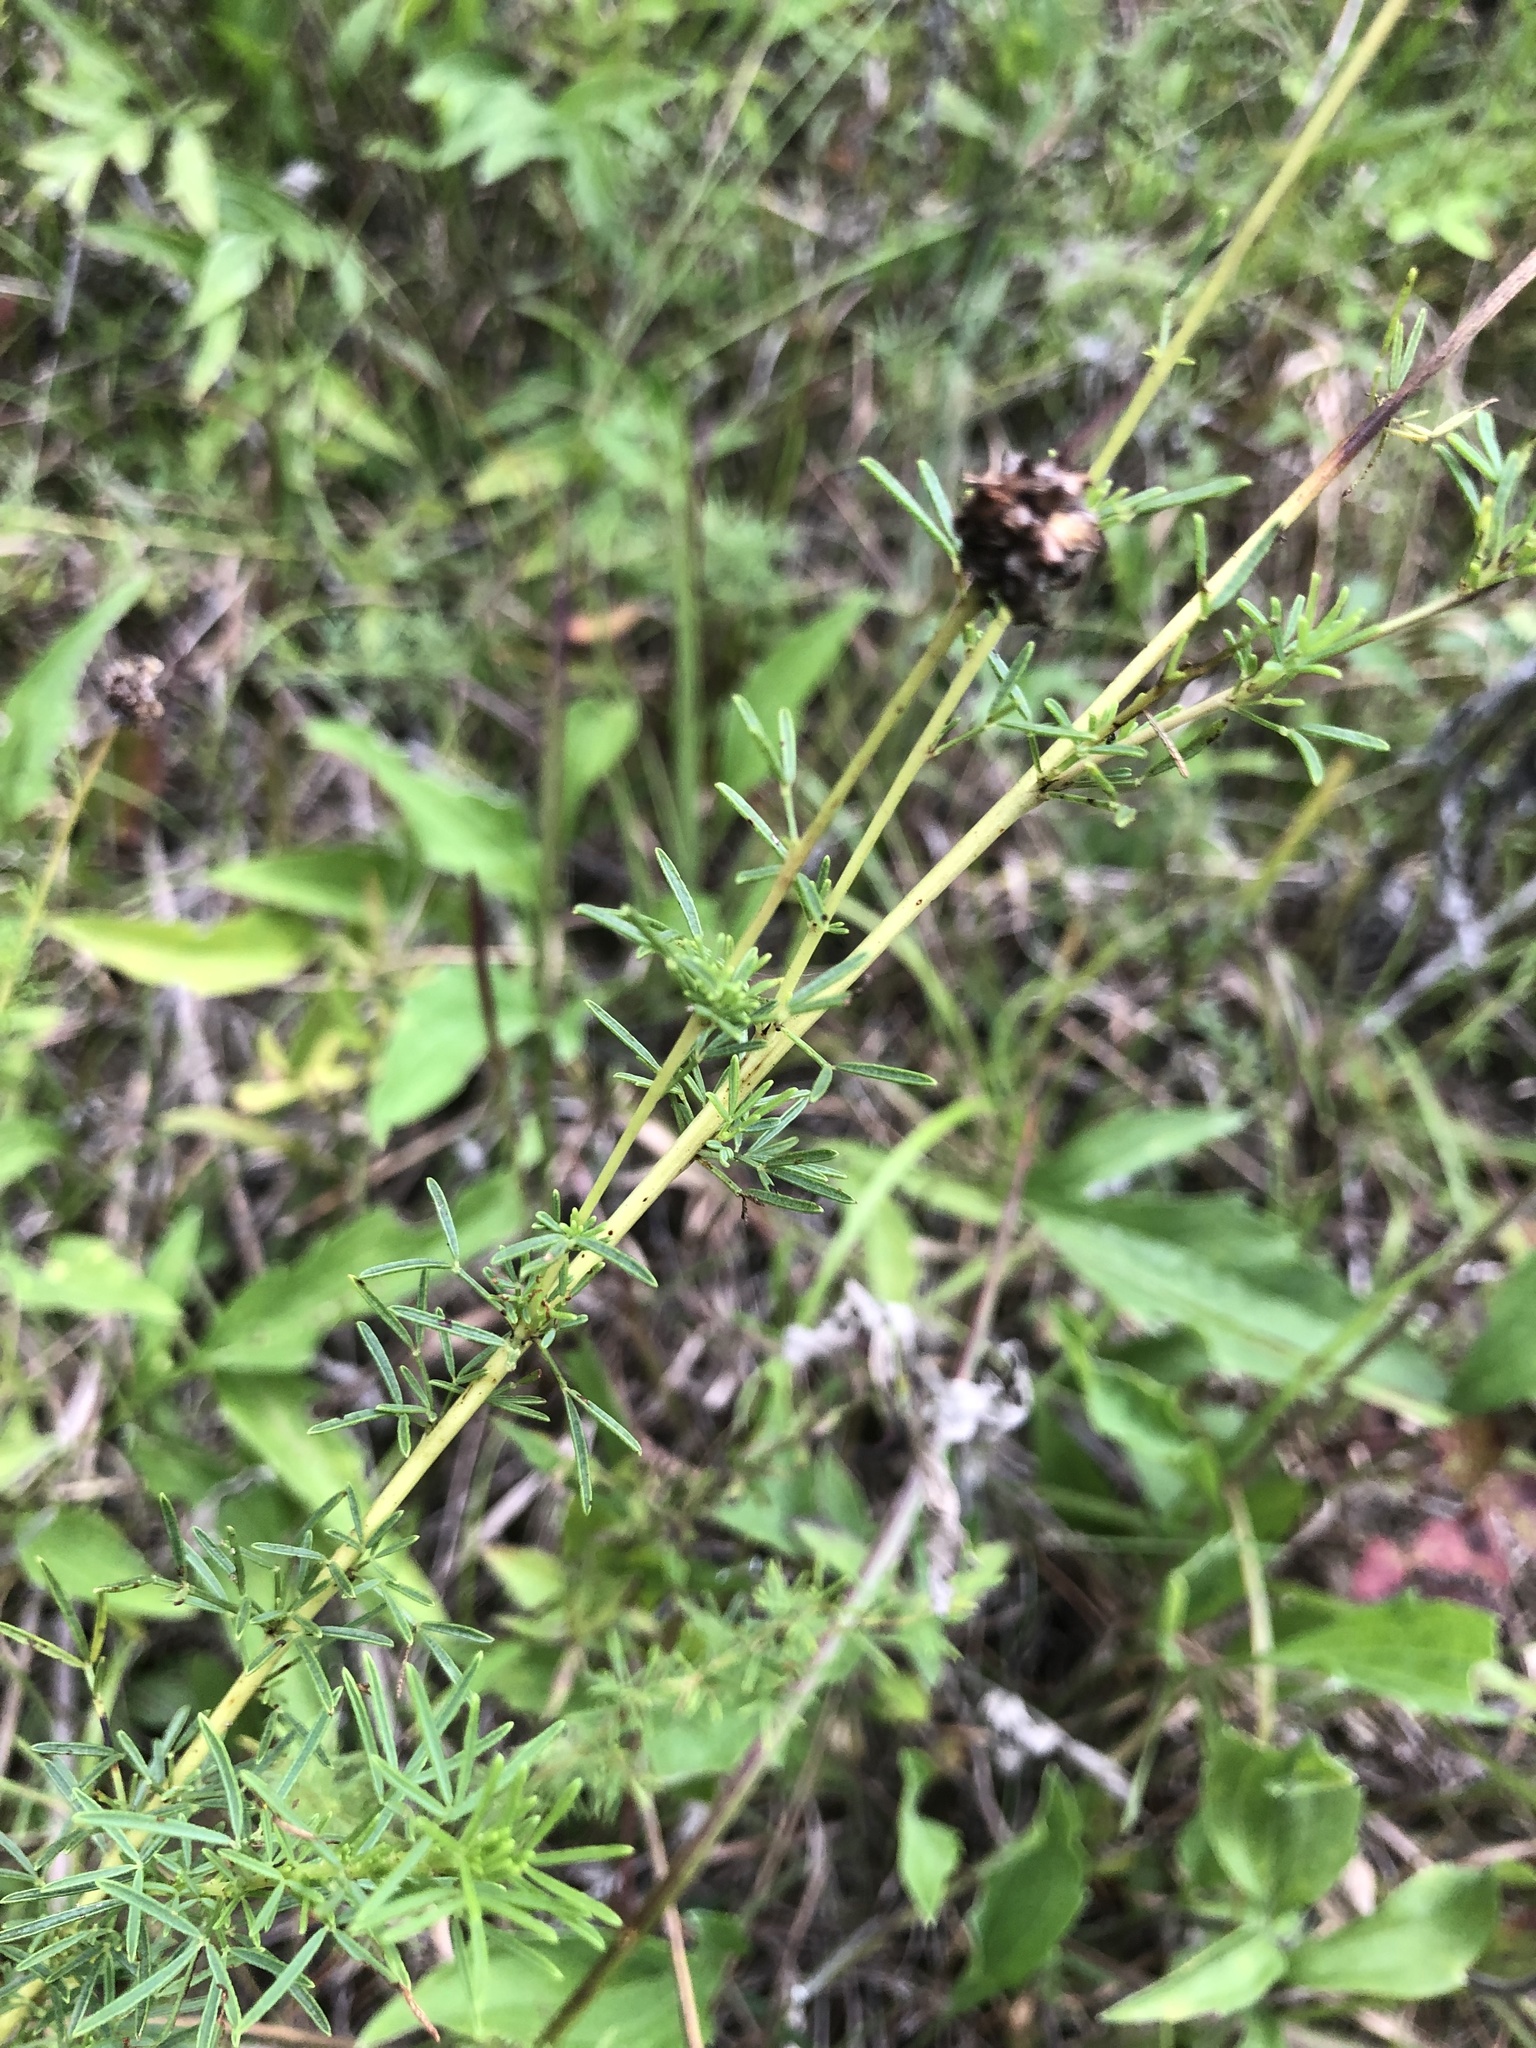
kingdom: Plantae
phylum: Tracheophyta
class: Magnoliopsida
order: Fabales
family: Fabaceae
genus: Dalea
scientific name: Dalea purpurea
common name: Purple prairie-clover
